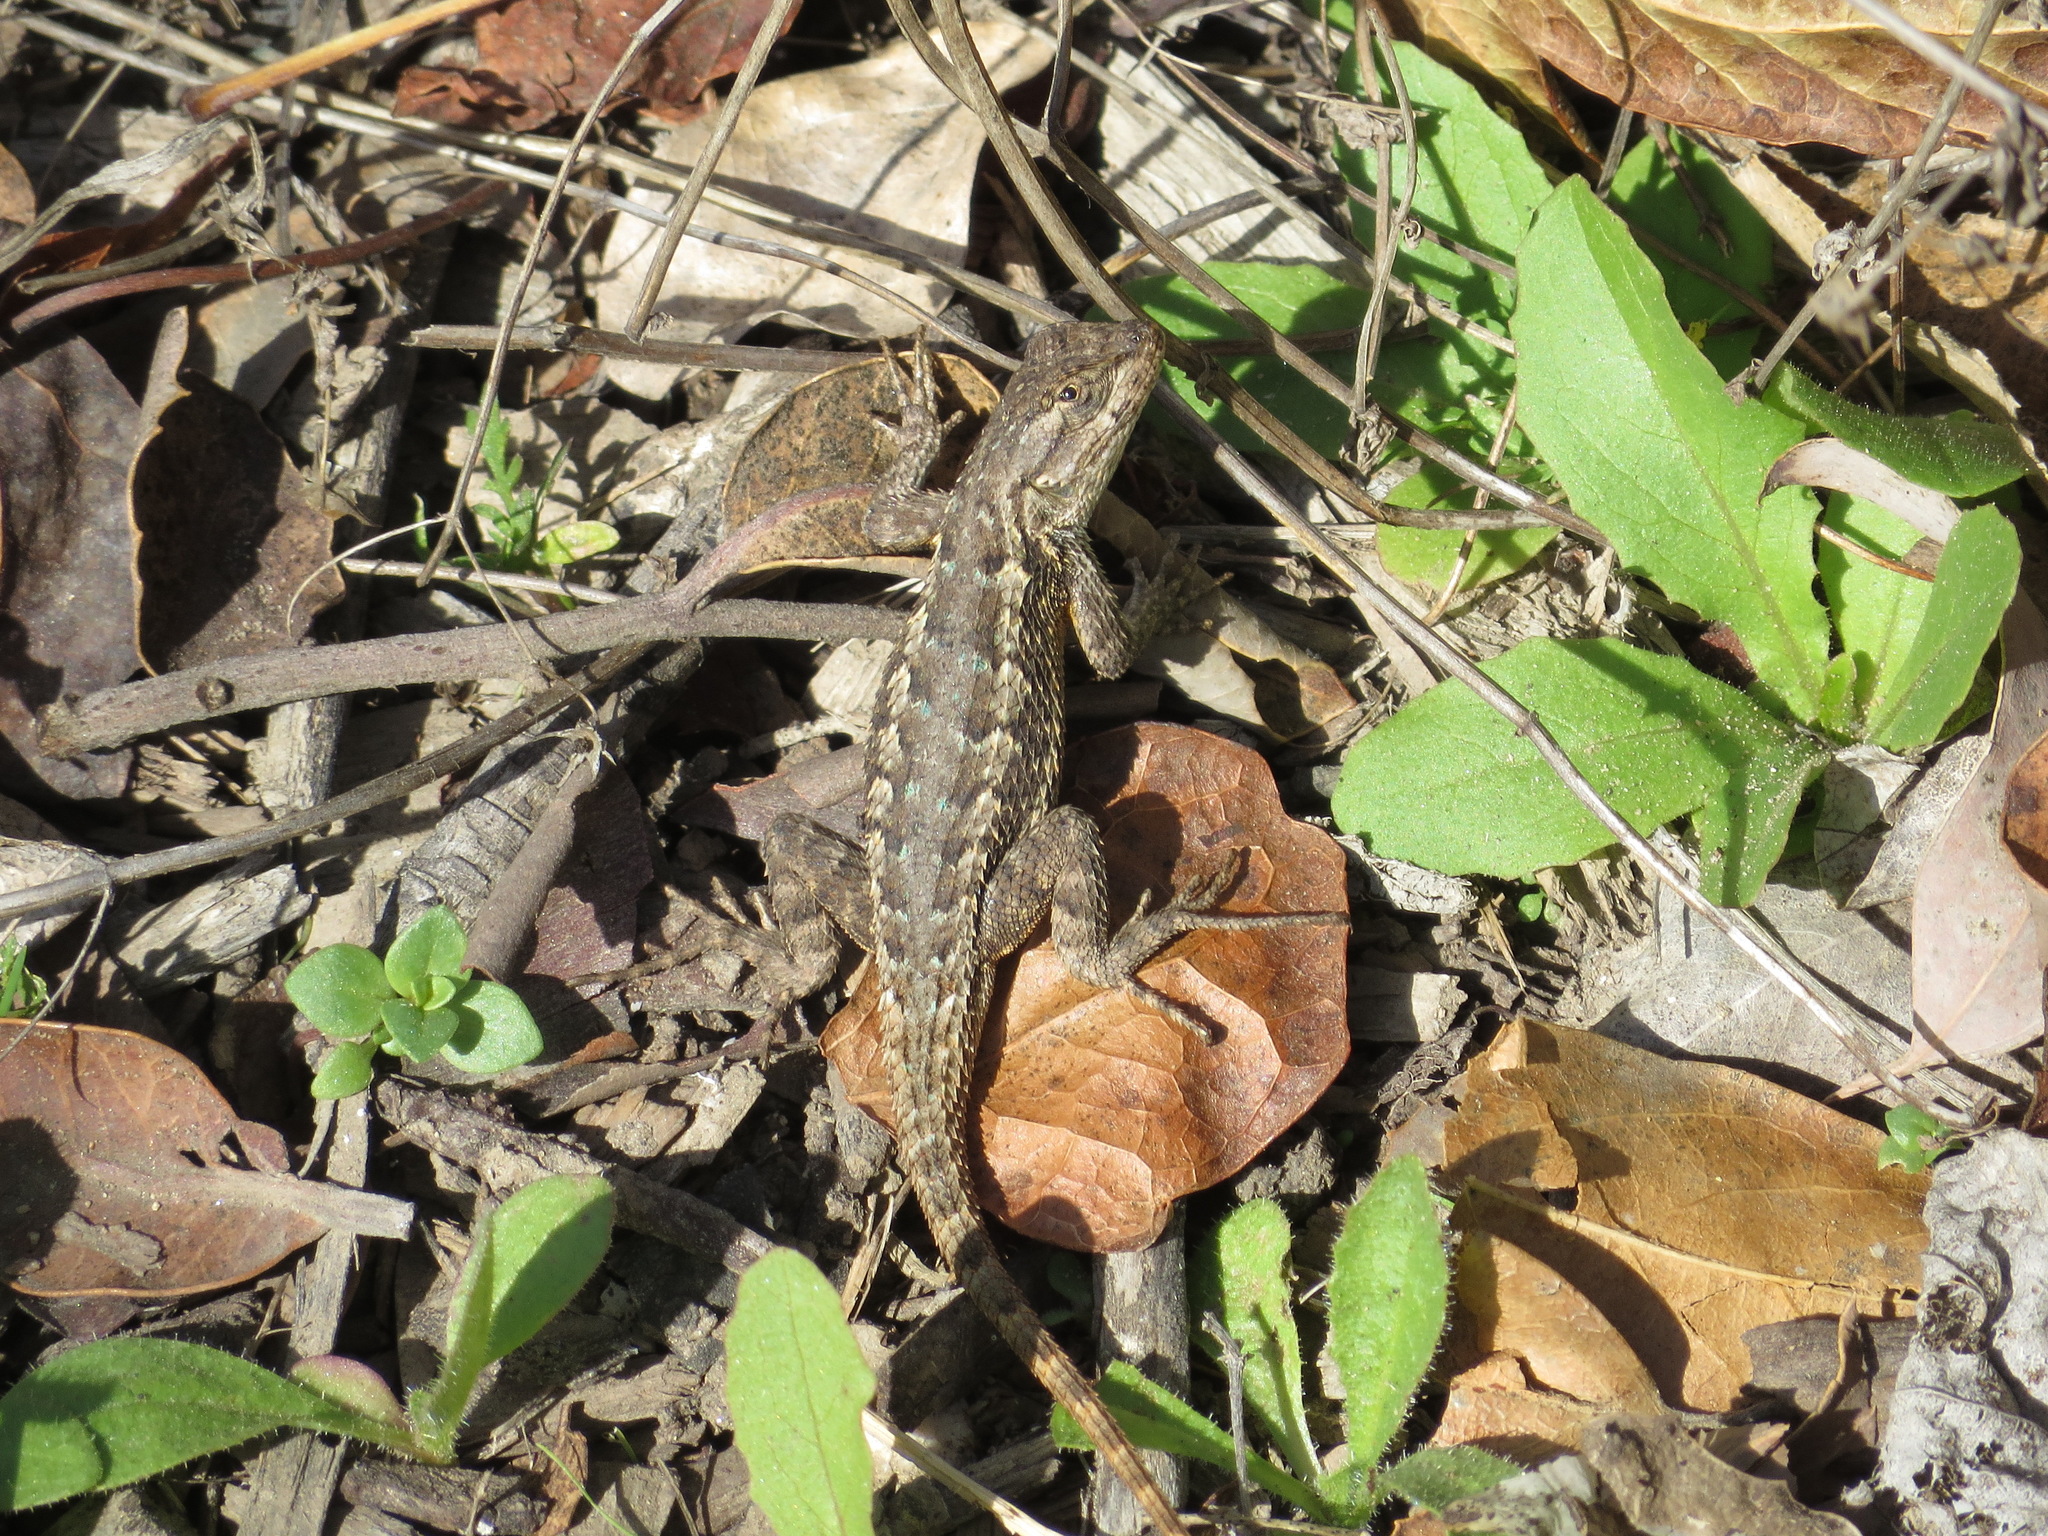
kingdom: Animalia
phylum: Chordata
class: Squamata
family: Phrynosomatidae
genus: Sceloporus
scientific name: Sceloporus occidentalis
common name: Western fence lizard
